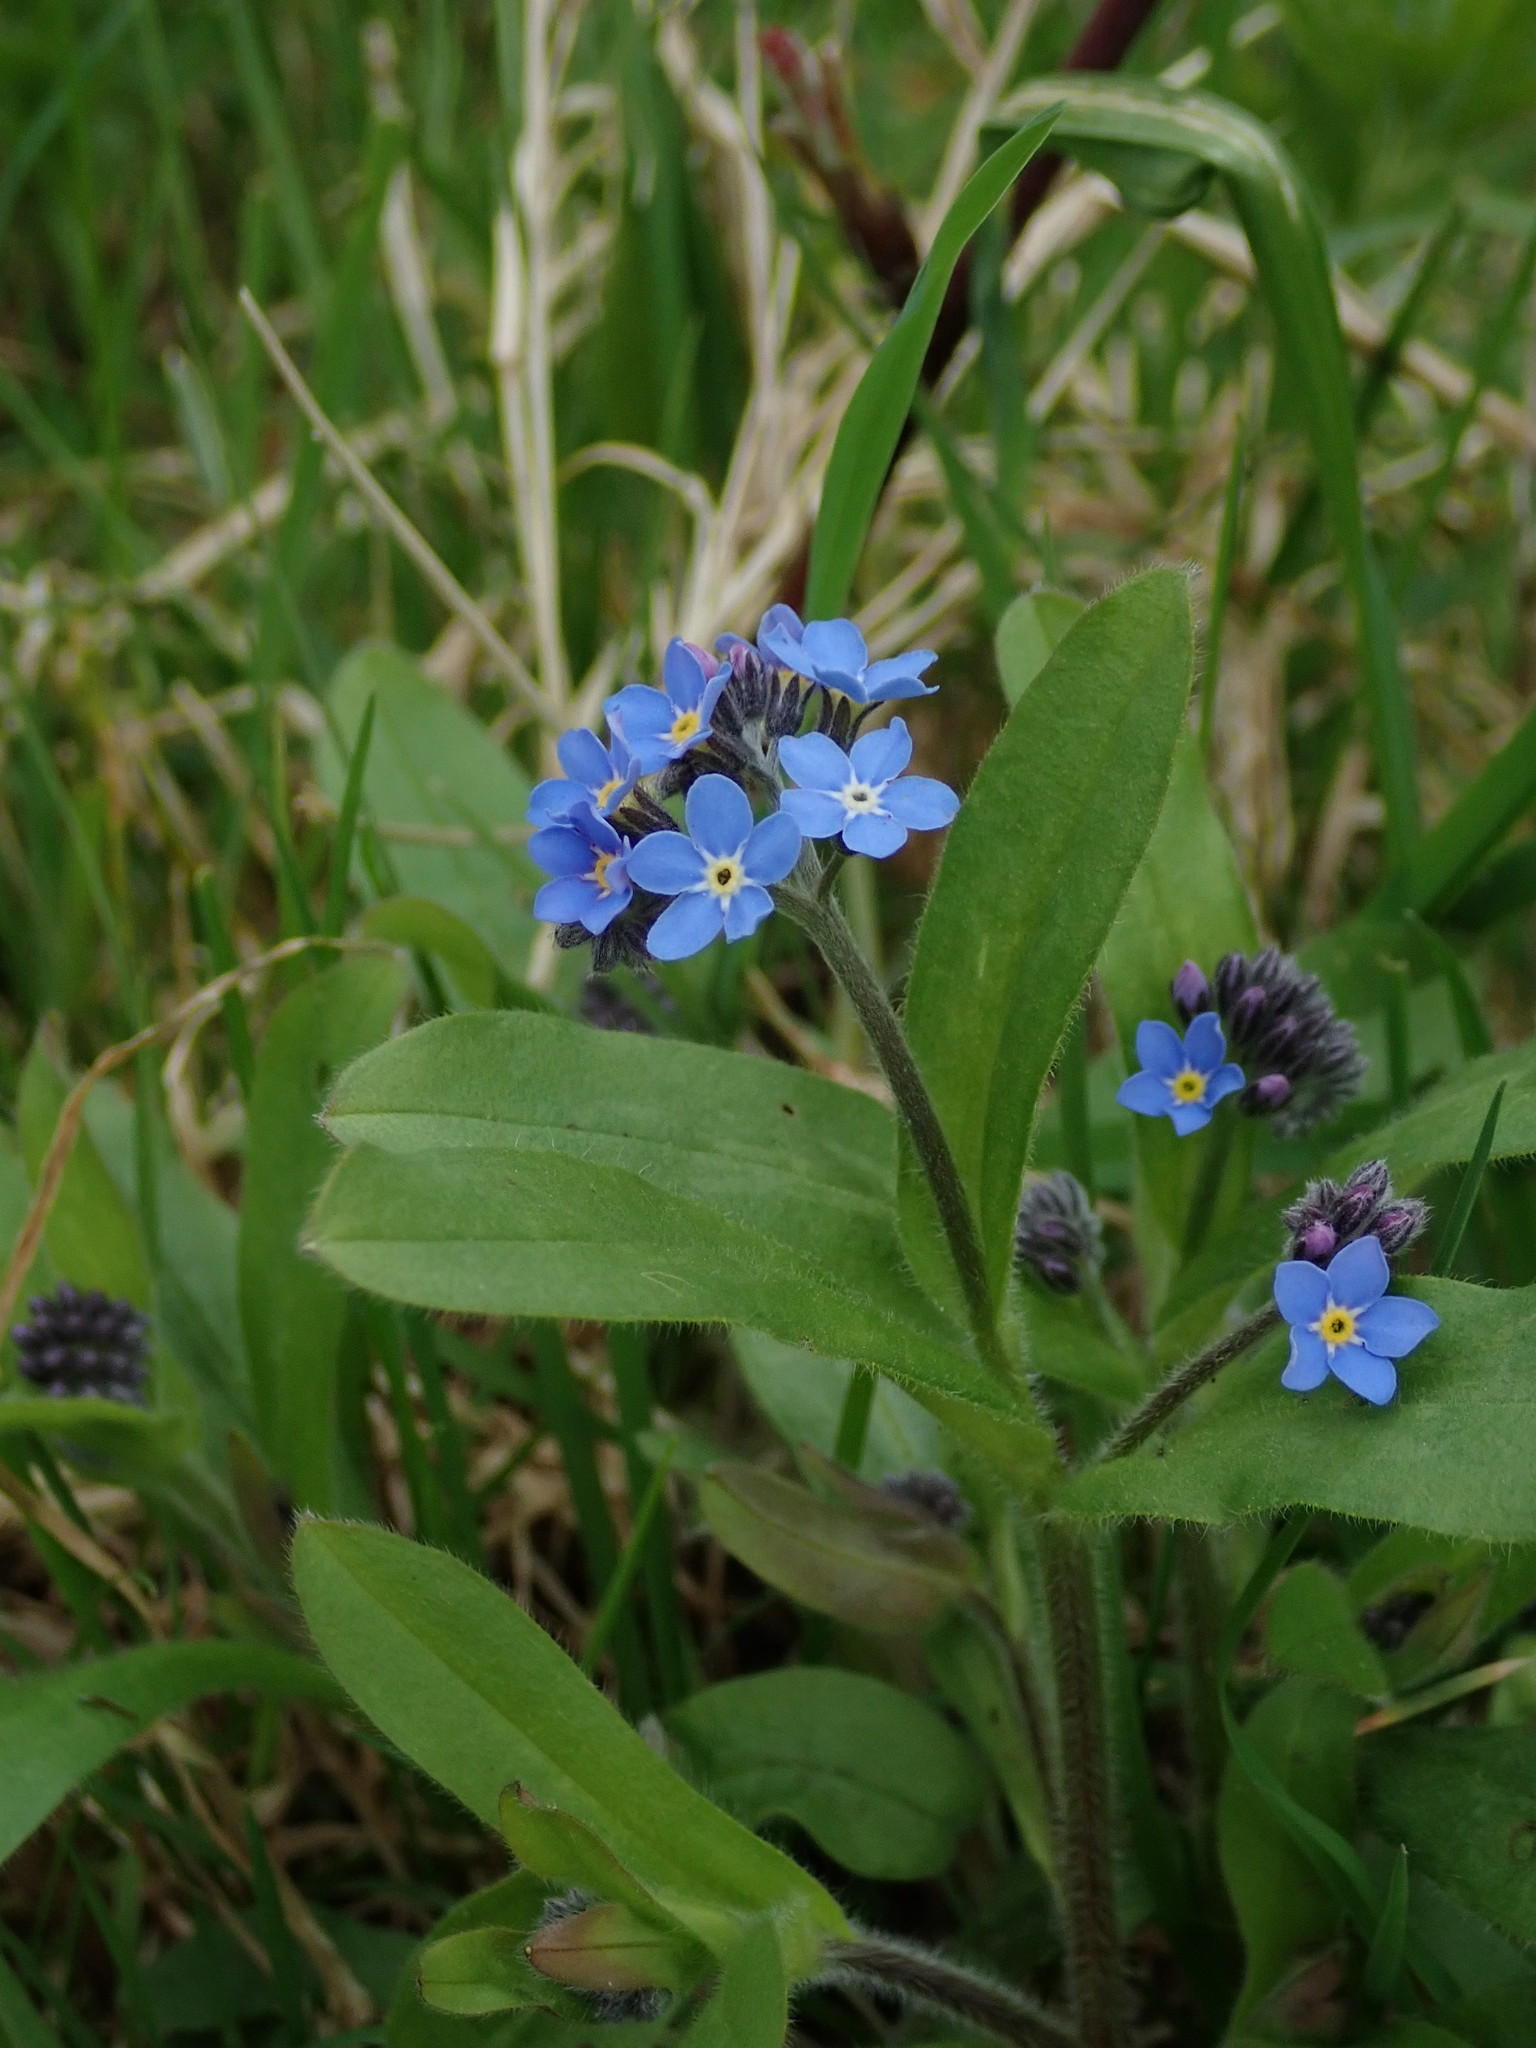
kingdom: Plantae
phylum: Tracheophyta
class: Magnoliopsida
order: Boraginales
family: Boraginaceae
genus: Myosotis
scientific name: Myosotis sylvatica
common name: Wood forget-me-not
